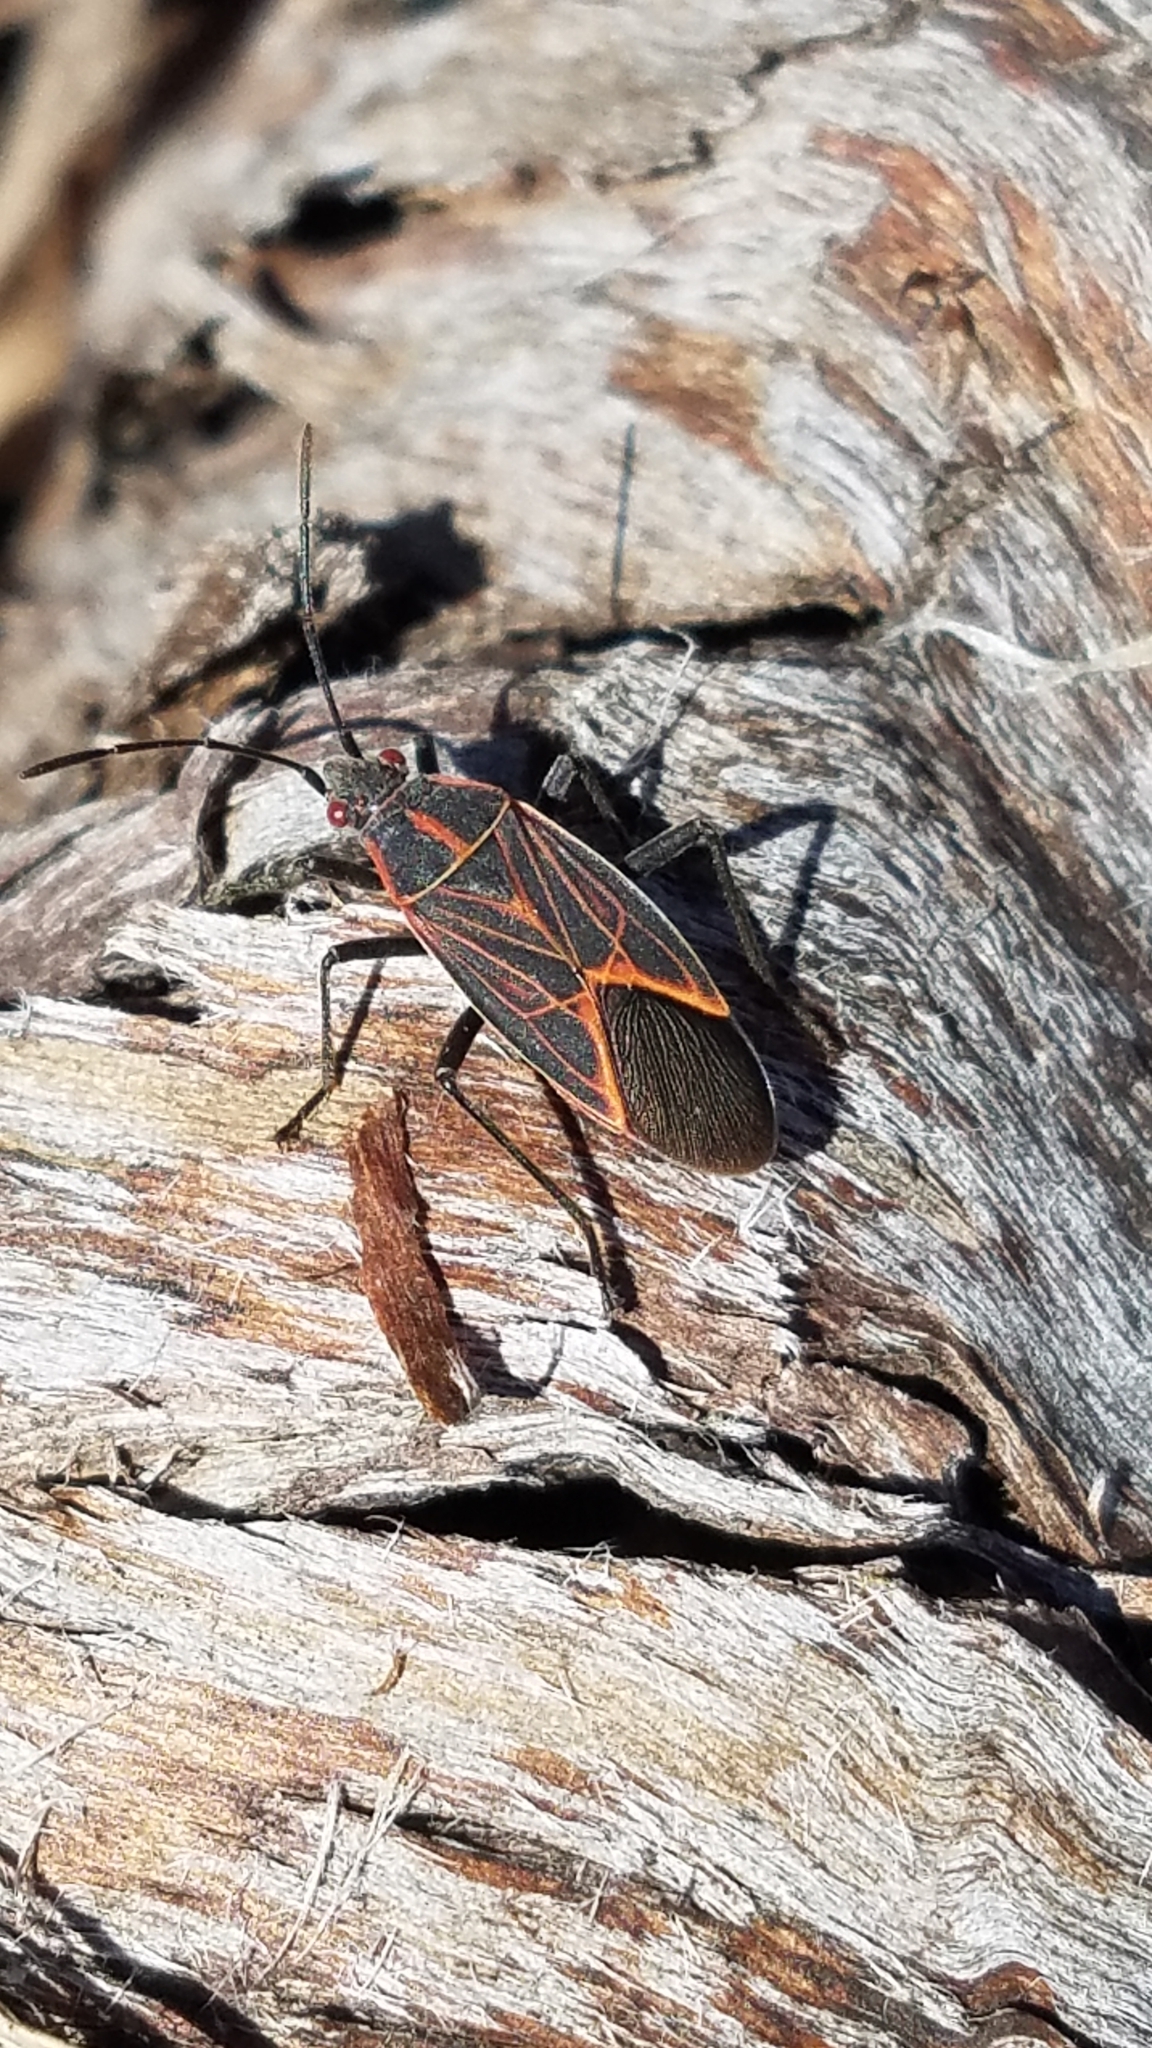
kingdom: Animalia
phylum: Arthropoda
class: Insecta
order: Hemiptera
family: Rhopalidae
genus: Boisea
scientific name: Boisea rubrolineata
